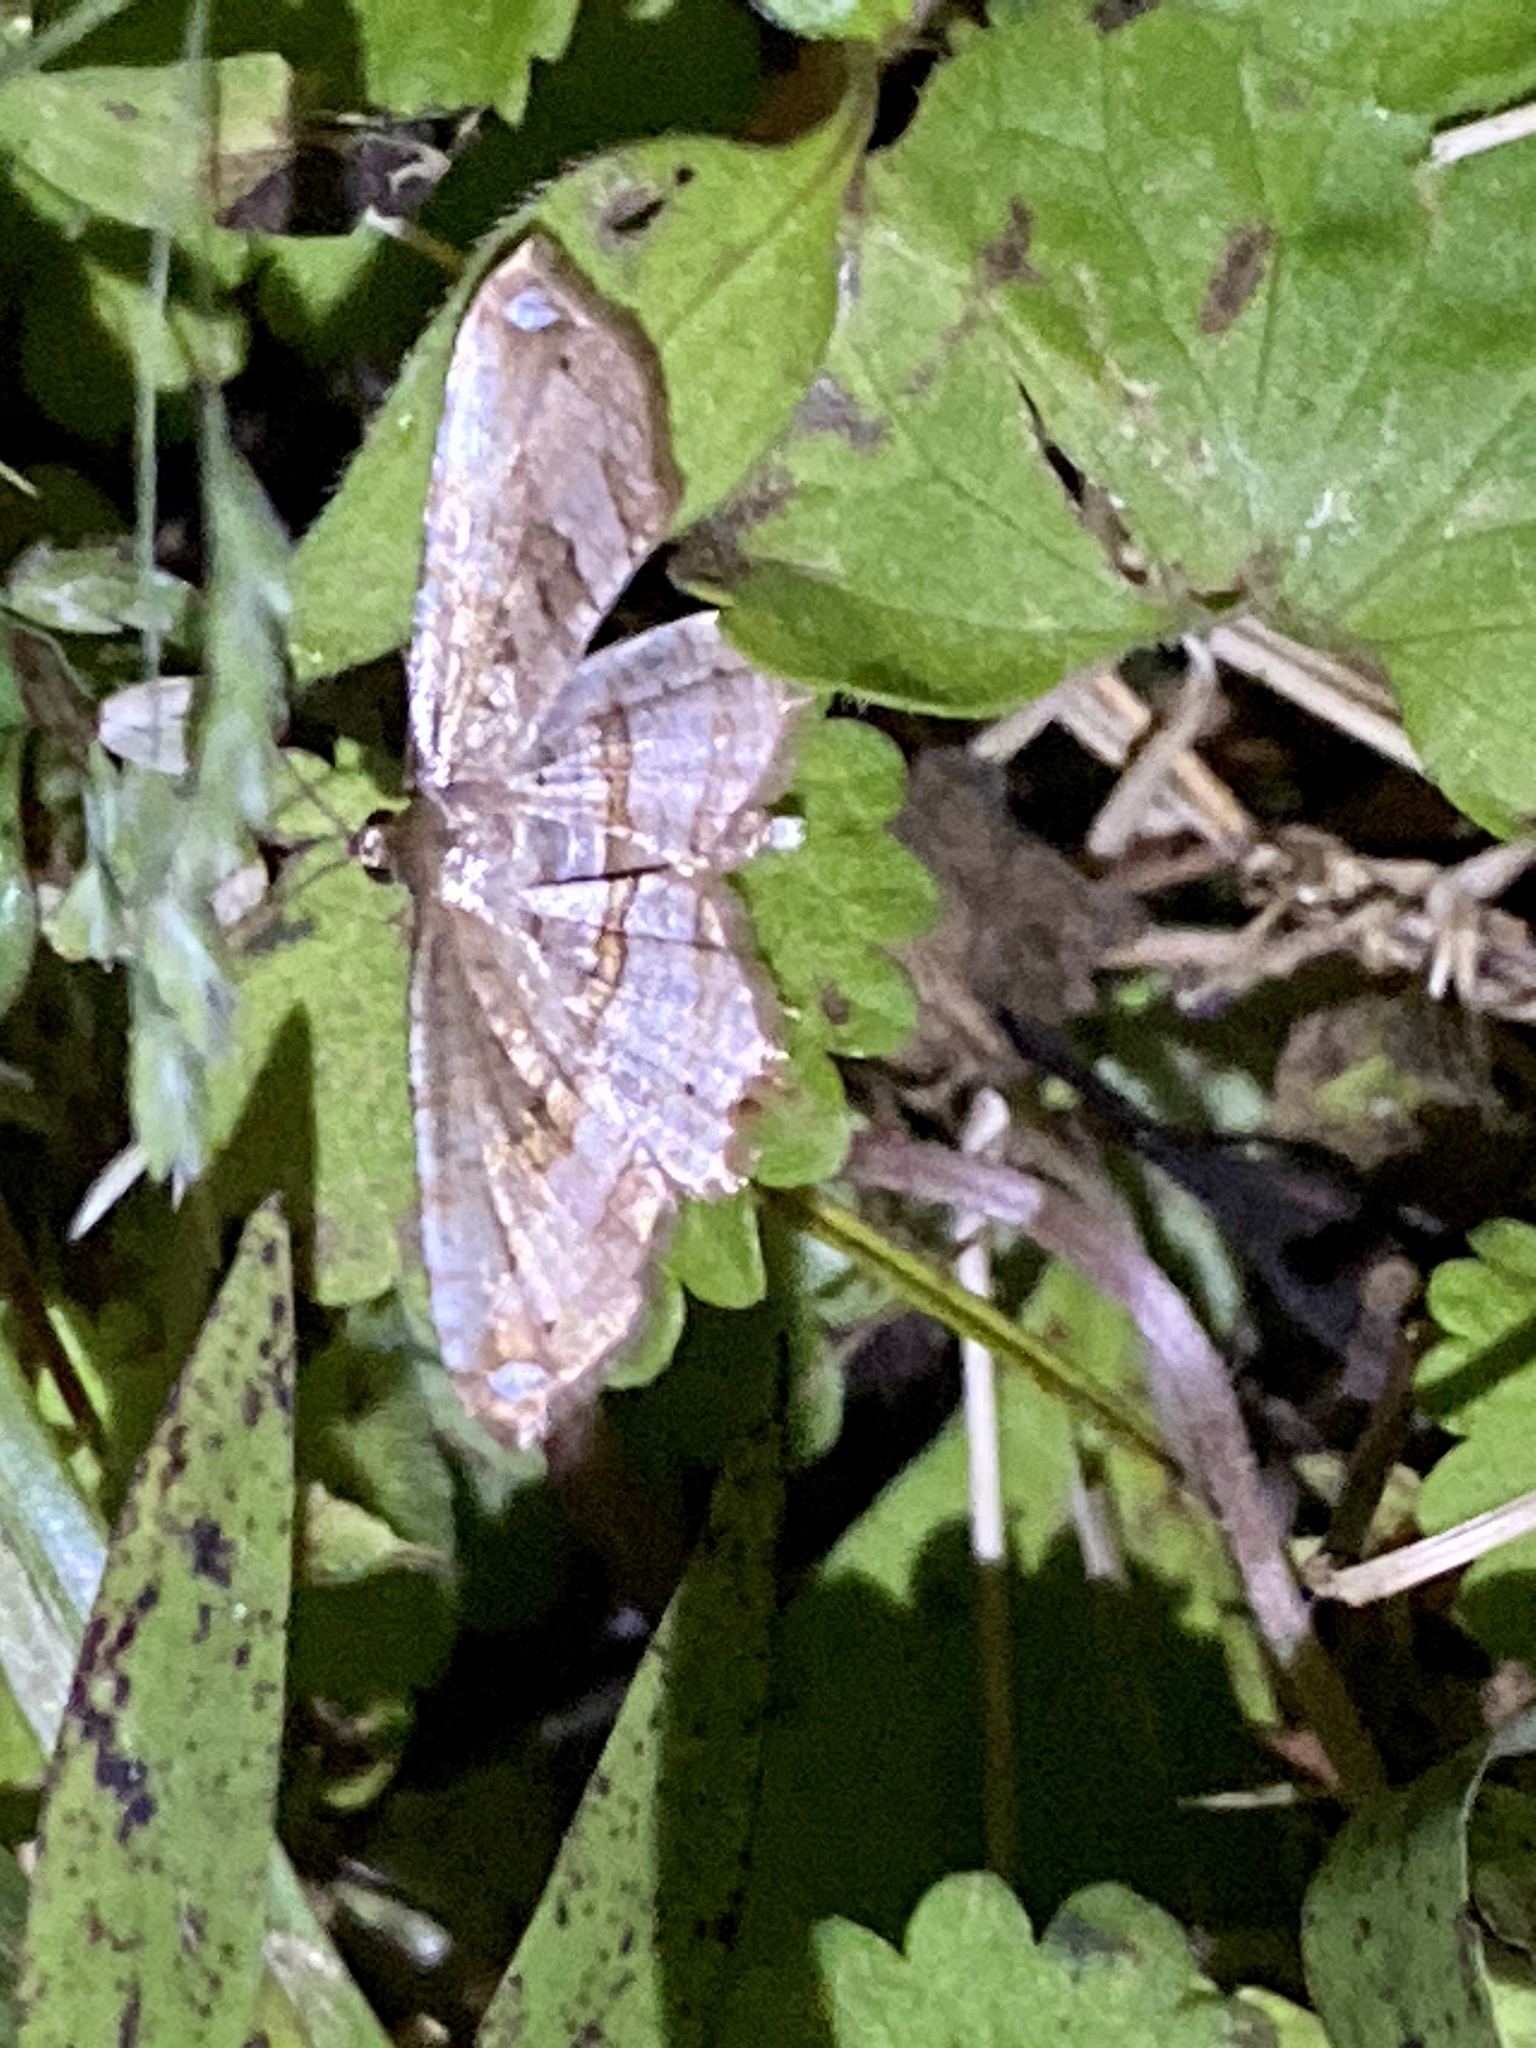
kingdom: Animalia
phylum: Arthropoda
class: Insecta
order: Lepidoptera
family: Thyrididae
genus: Rhodoneura
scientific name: Rhodoneura pallida
